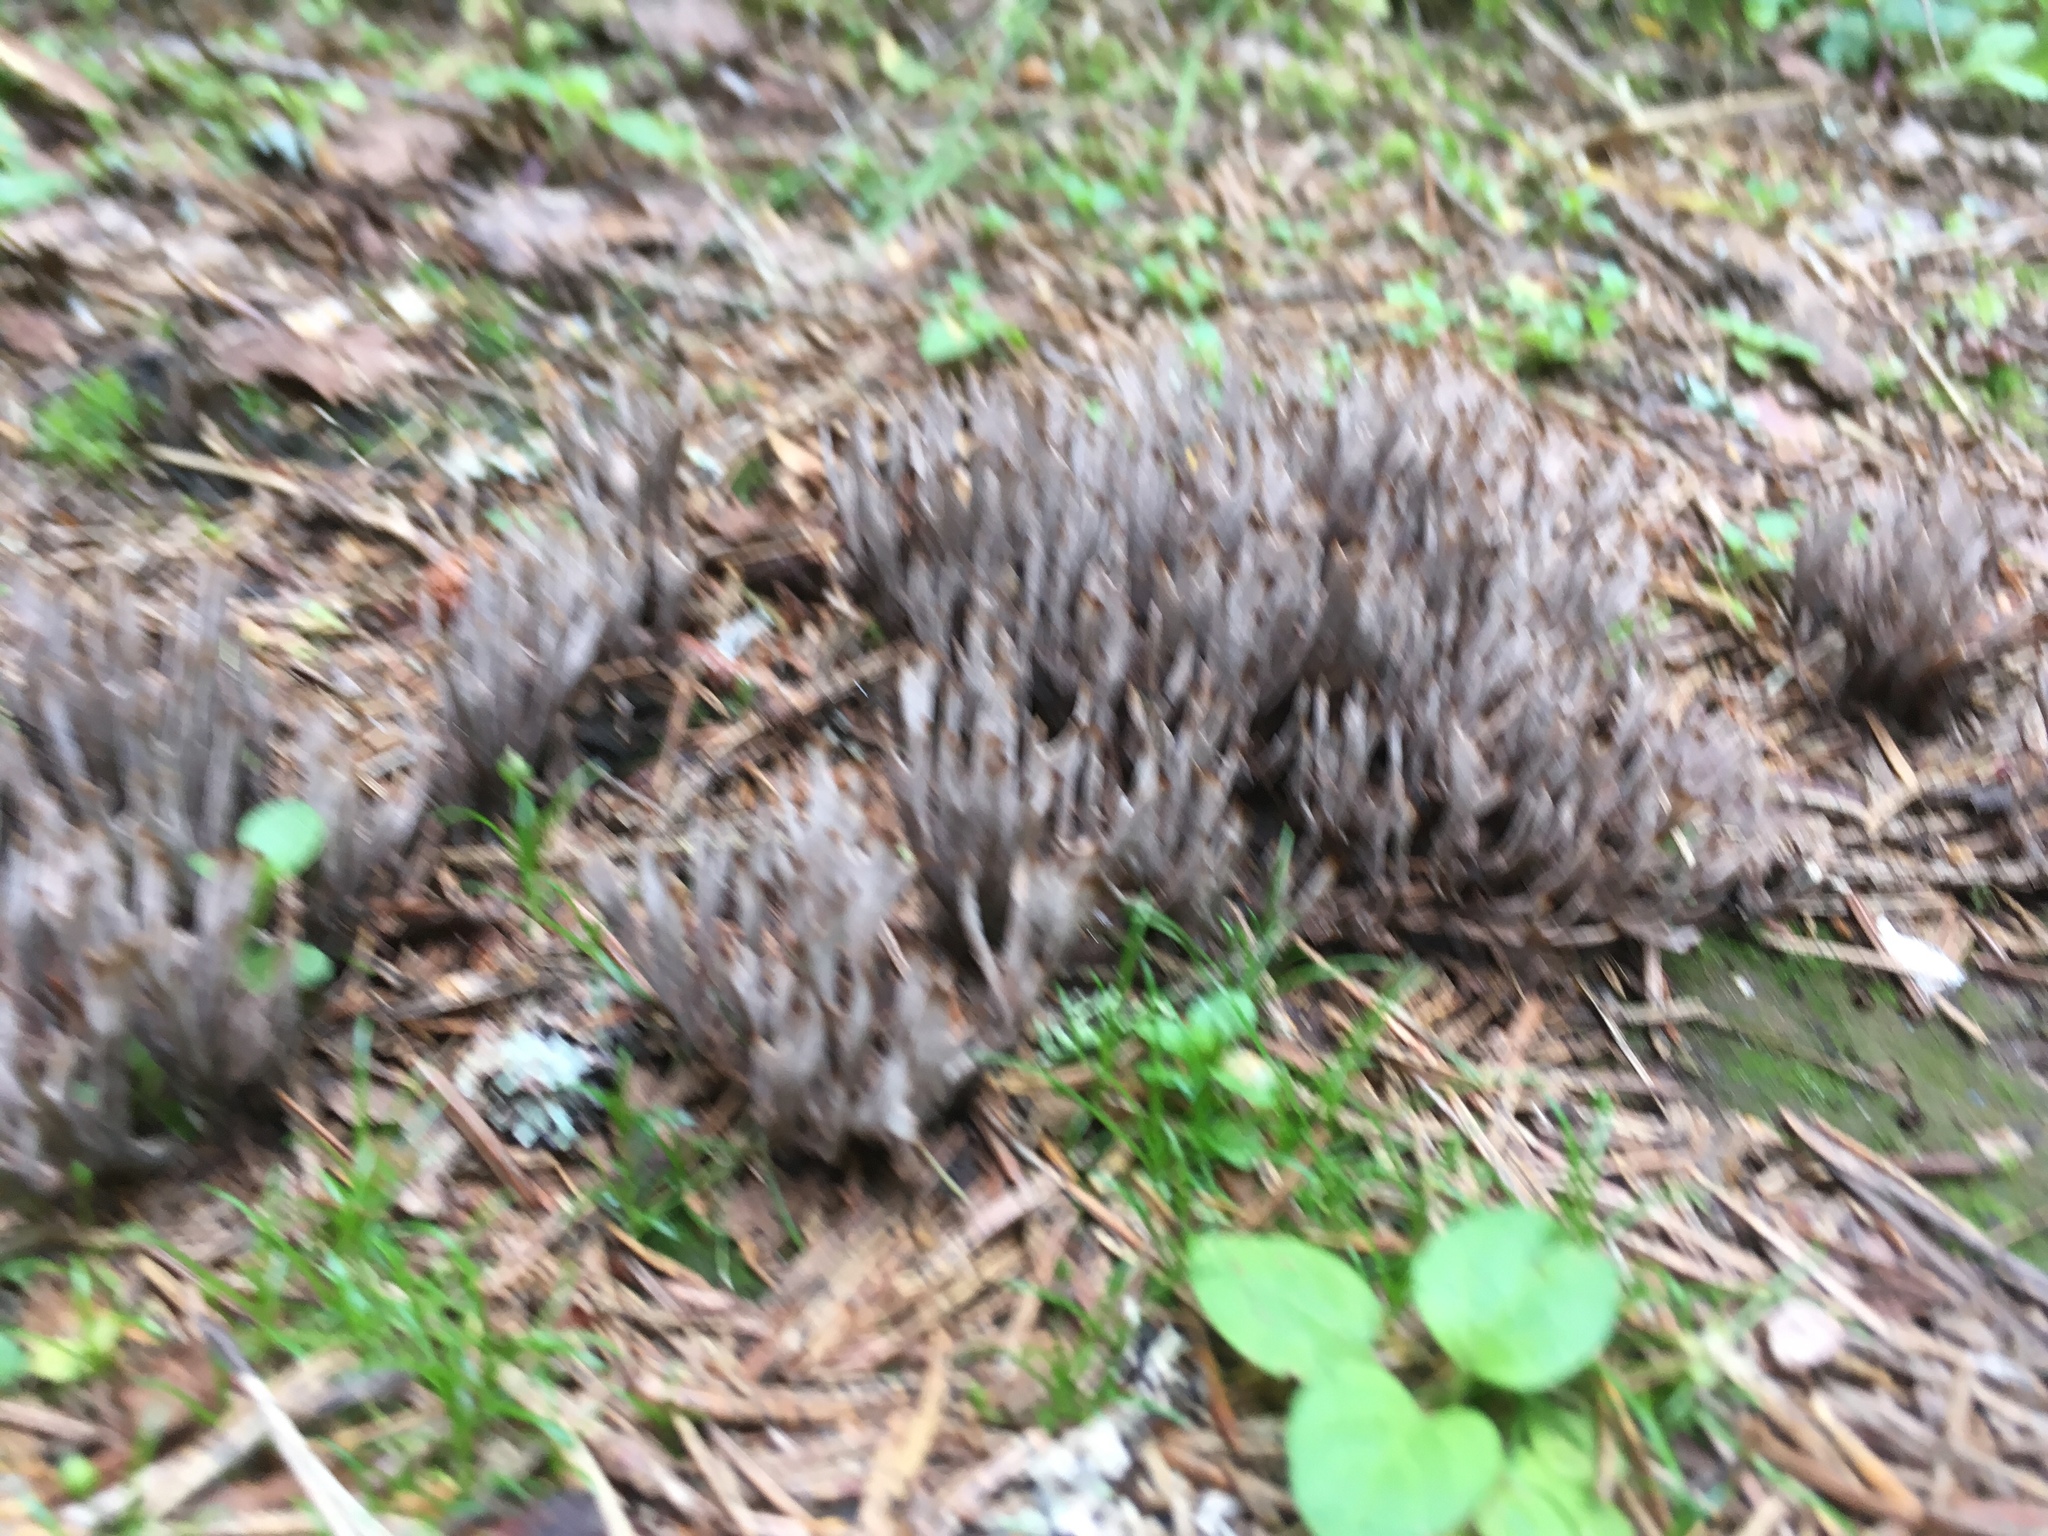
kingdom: Fungi
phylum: Basidiomycota
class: Agaricomycetes
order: Thelephorales
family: Thelephoraceae
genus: Thelephora
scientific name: Thelephora palmata
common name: Stinking earthfan
